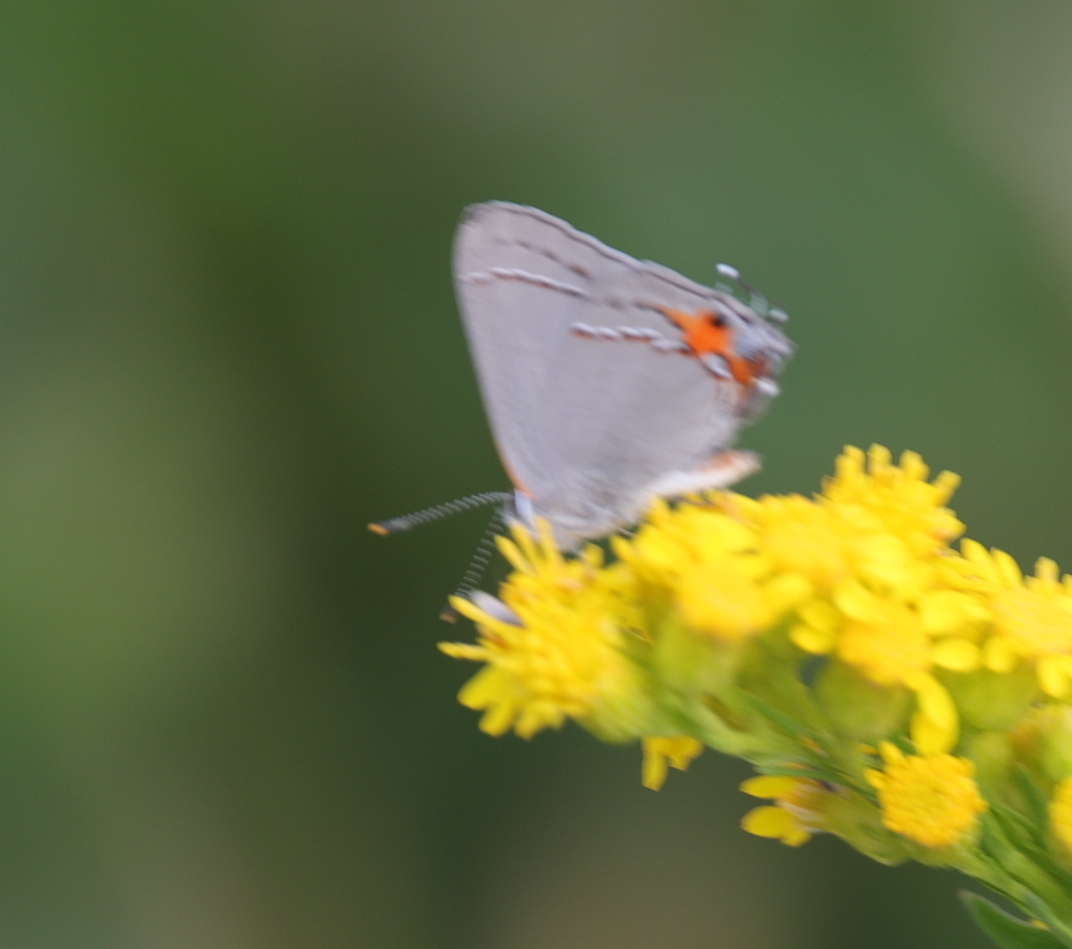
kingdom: Animalia
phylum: Arthropoda
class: Insecta
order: Lepidoptera
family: Lycaenidae
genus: Strymon
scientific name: Strymon melinus
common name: Gray hairstreak
